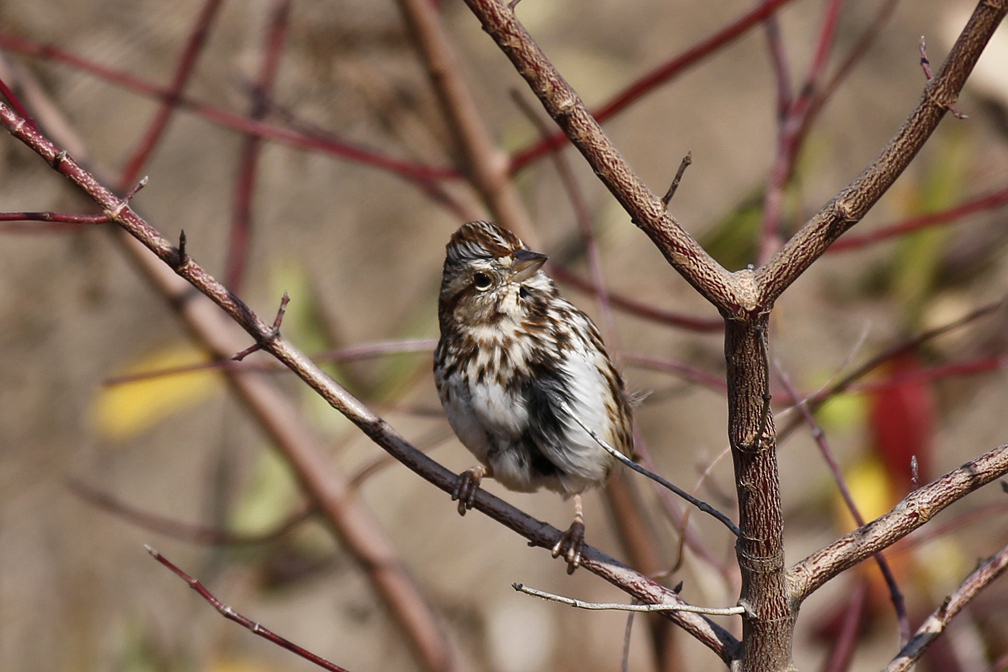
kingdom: Animalia
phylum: Chordata
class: Aves
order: Passeriformes
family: Passerellidae
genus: Melospiza
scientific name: Melospiza melodia
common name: Song sparrow
